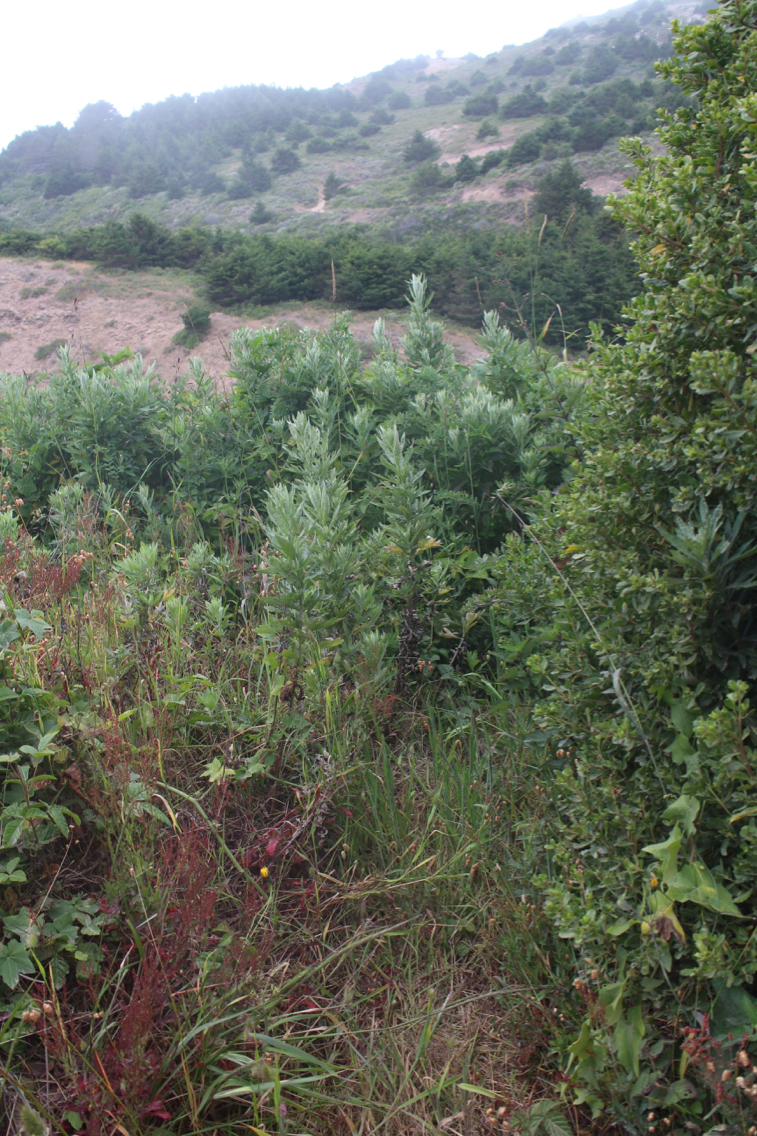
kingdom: Plantae
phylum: Tracheophyta
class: Magnoliopsida
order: Asterales
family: Asteraceae
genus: Artemisia
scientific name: Artemisia douglasiana
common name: Northwest mugwort
